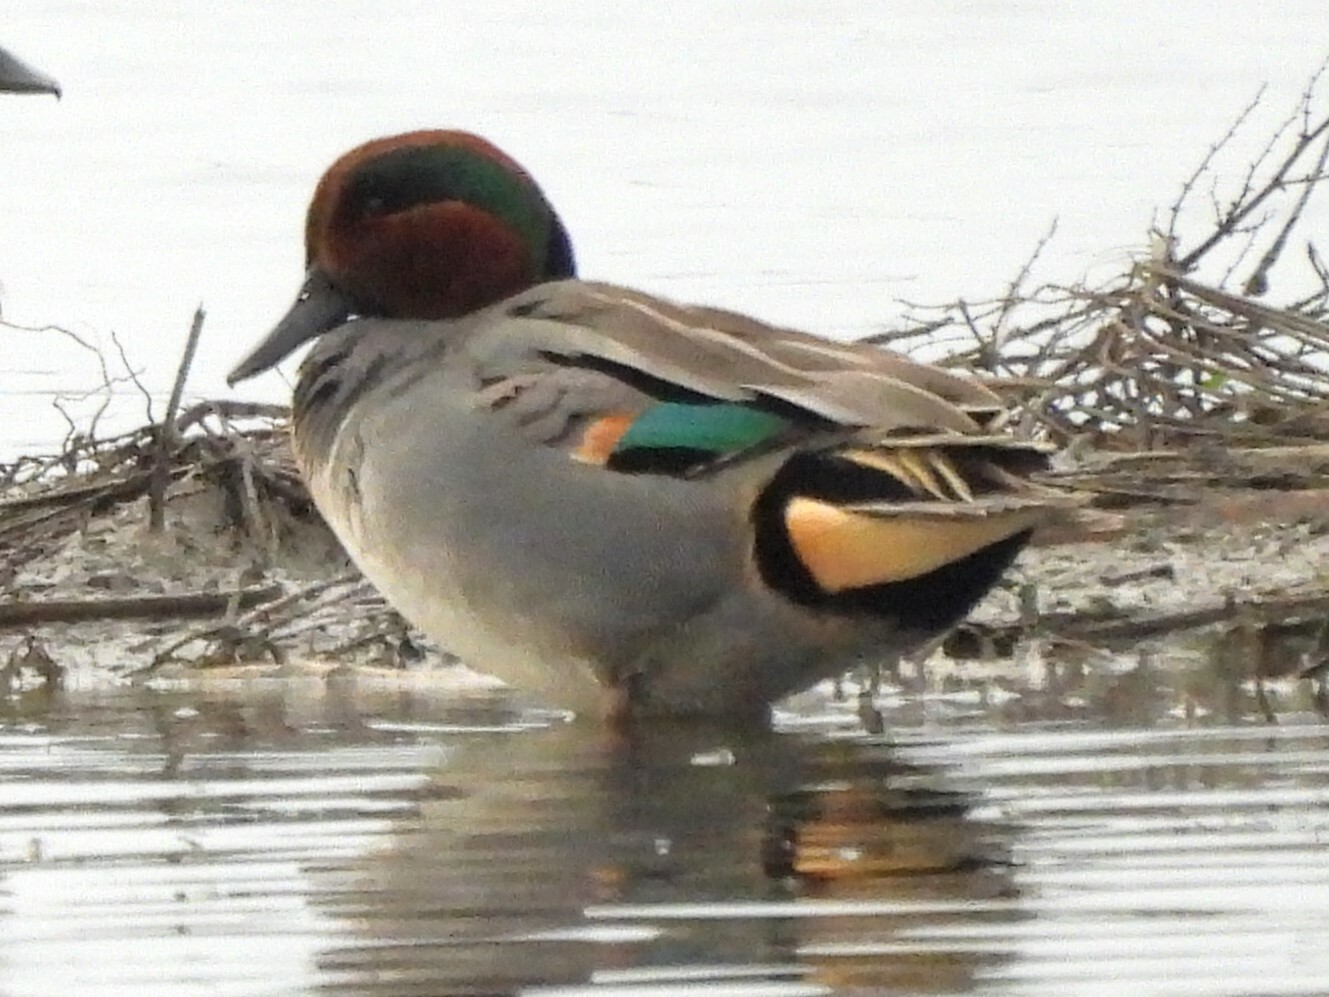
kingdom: Animalia
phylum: Chordata
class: Aves
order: Anseriformes
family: Anatidae
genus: Anas
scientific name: Anas crecca
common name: Eurasian teal
